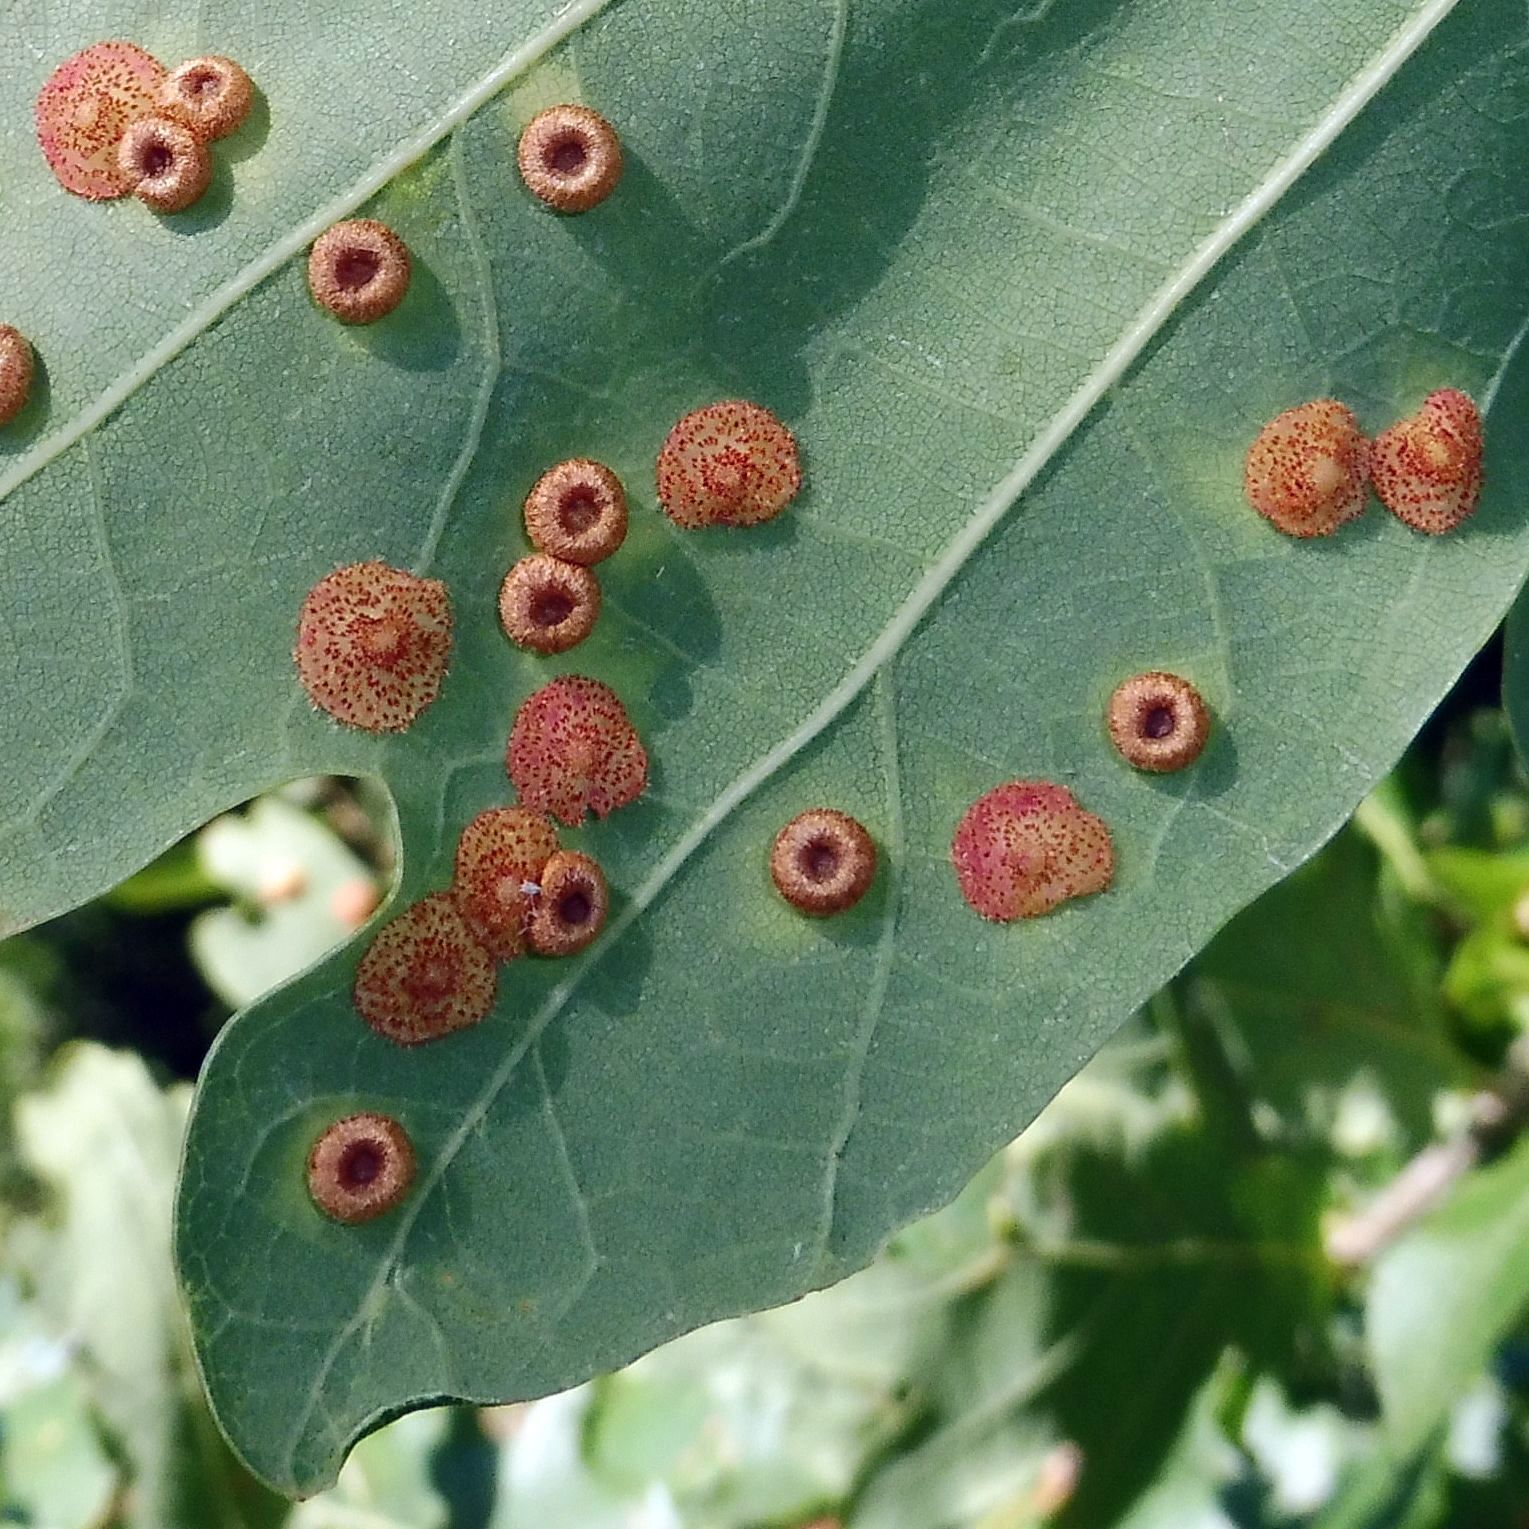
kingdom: Animalia
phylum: Arthropoda
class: Insecta
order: Hymenoptera
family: Cynipidae
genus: Neuroterus
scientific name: Neuroterus quercusbaccarum
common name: Common spangle gall
